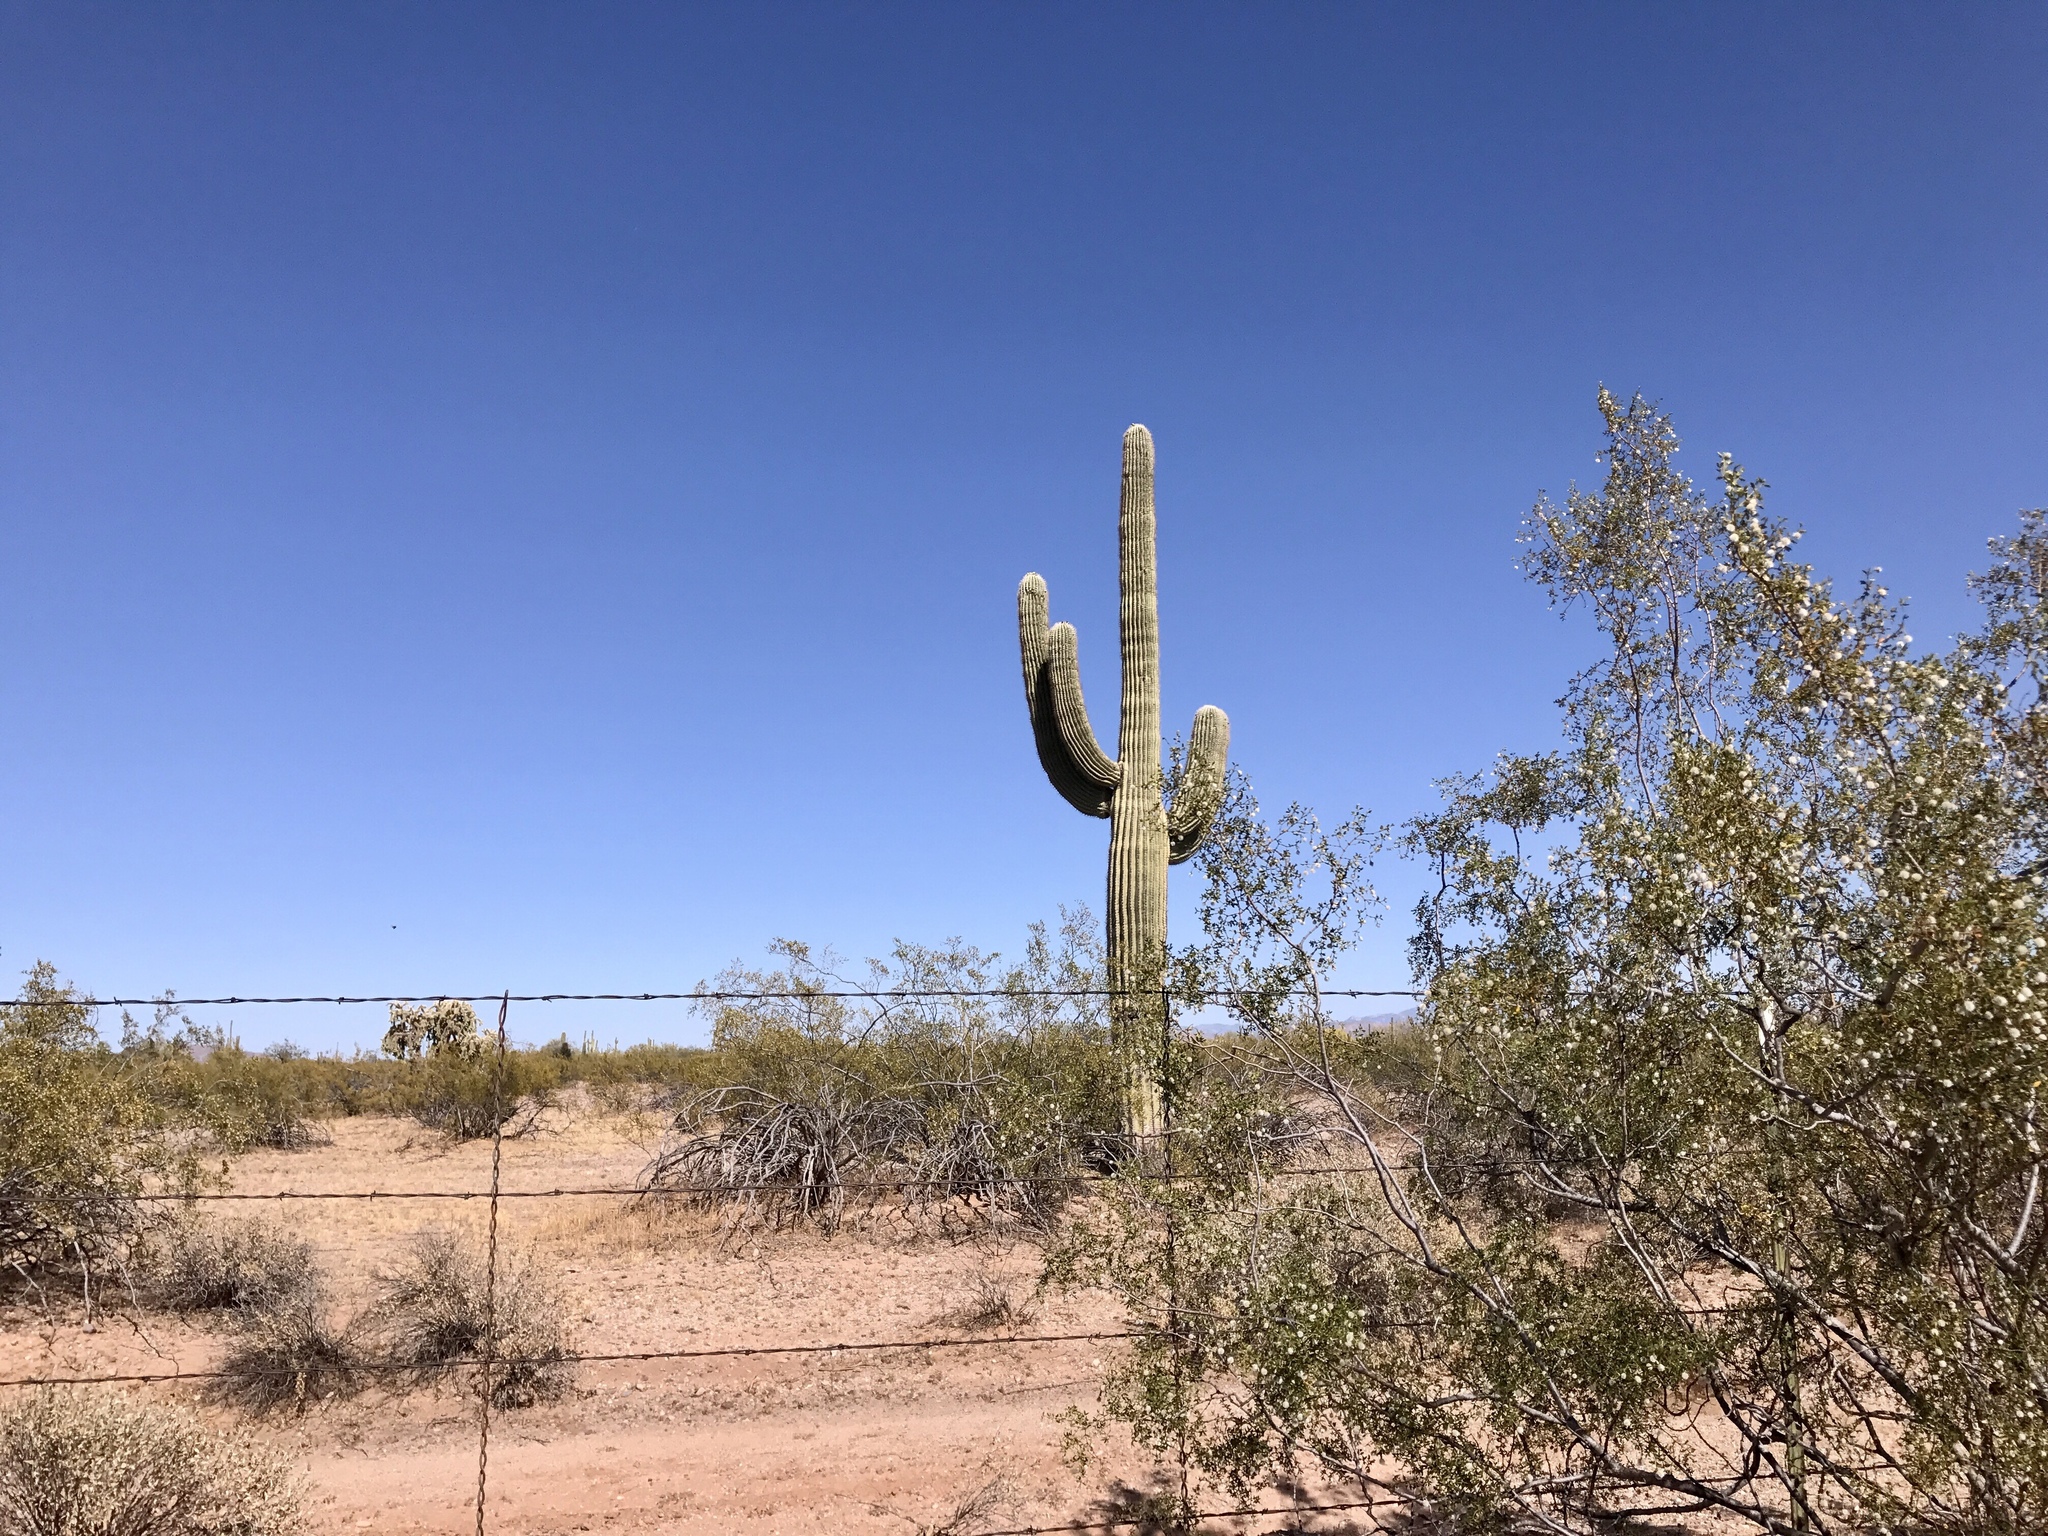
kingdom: Plantae
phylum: Tracheophyta
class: Magnoliopsida
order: Caryophyllales
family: Cactaceae
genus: Carnegiea
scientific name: Carnegiea gigantea
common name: Saguaro
